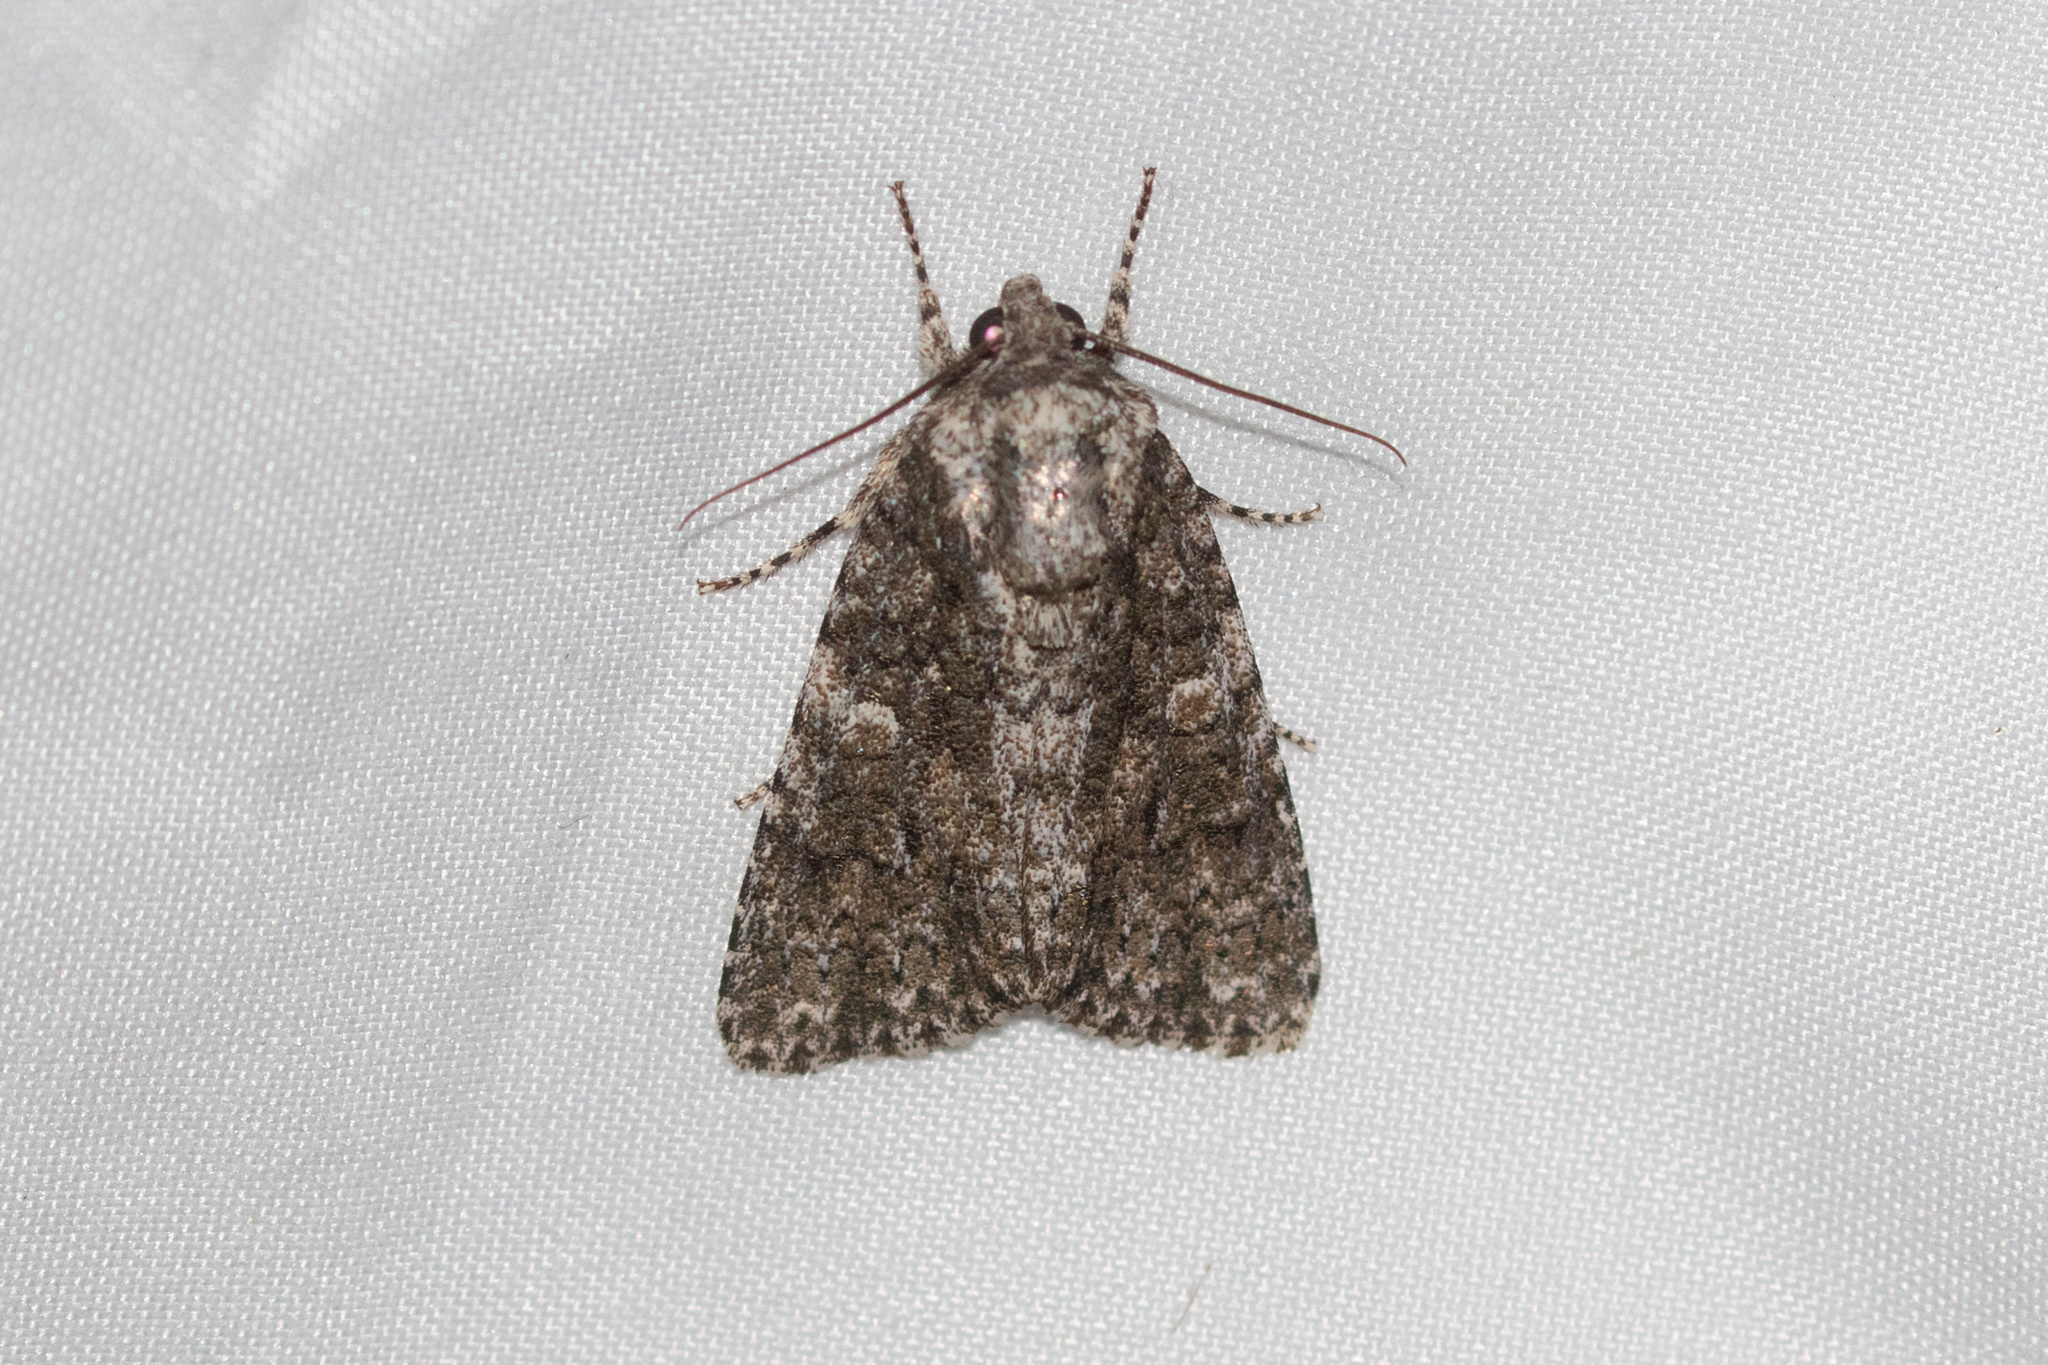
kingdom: Animalia
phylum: Arthropoda
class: Insecta
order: Lepidoptera
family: Noctuidae
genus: Acronicta
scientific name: Acronicta afflicta
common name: Afflicted dagger moth
